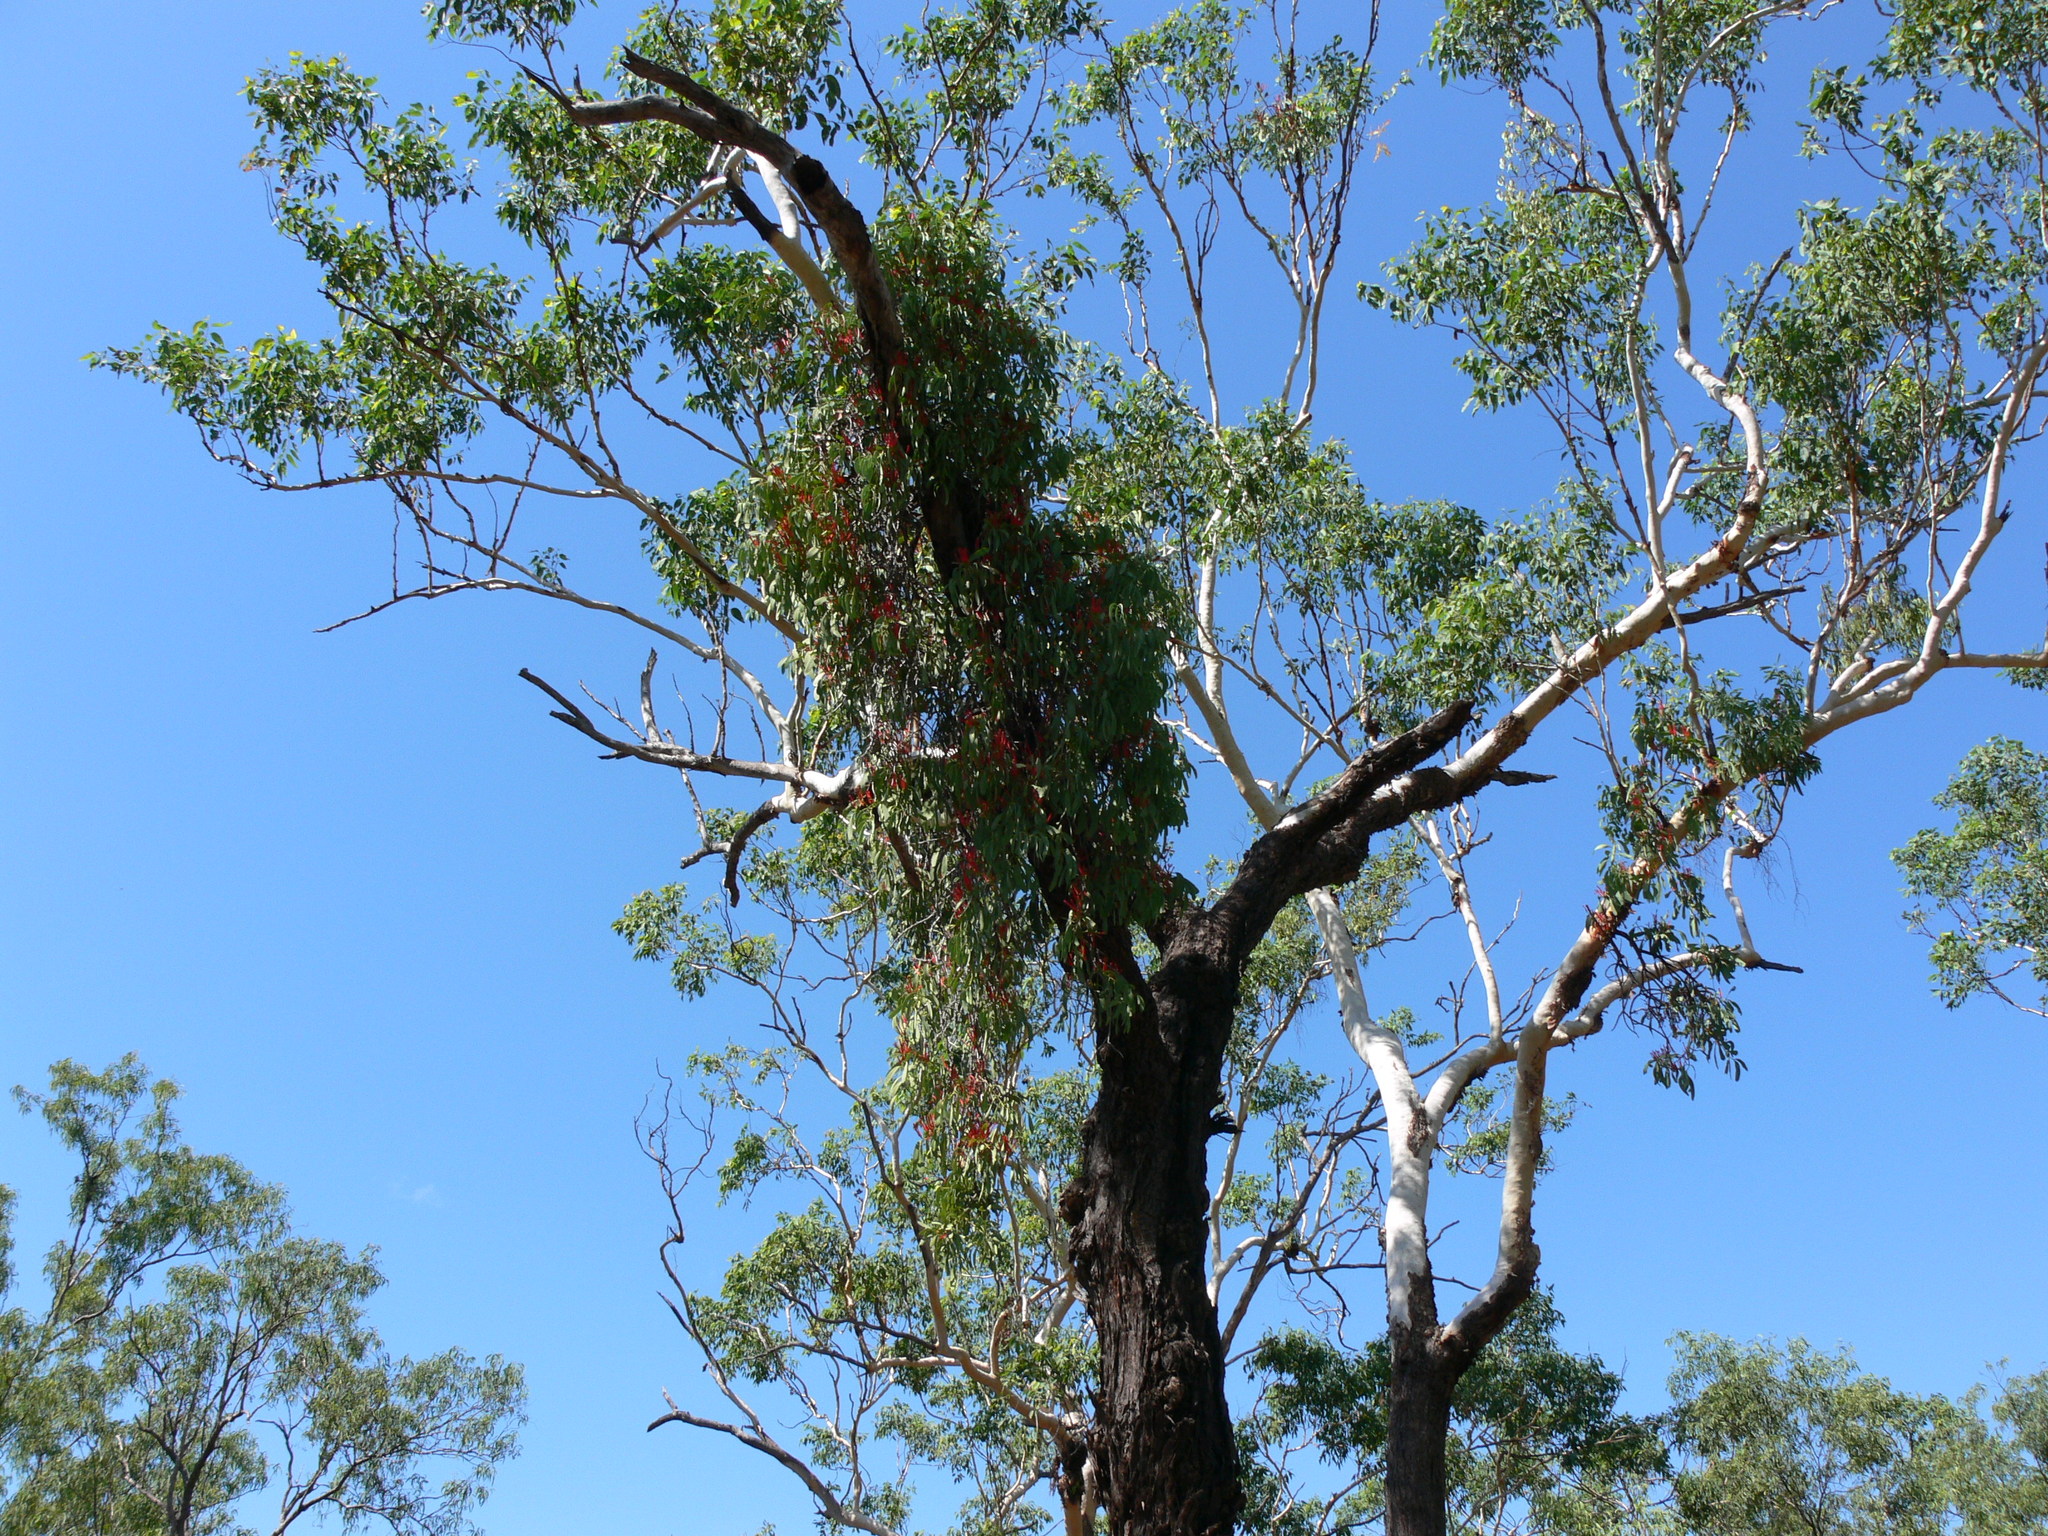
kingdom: Plantae
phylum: Tracheophyta
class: Magnoliopsida
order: Santalales
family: Loranthaceae
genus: Amyema
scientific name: Amyema sanguinea
